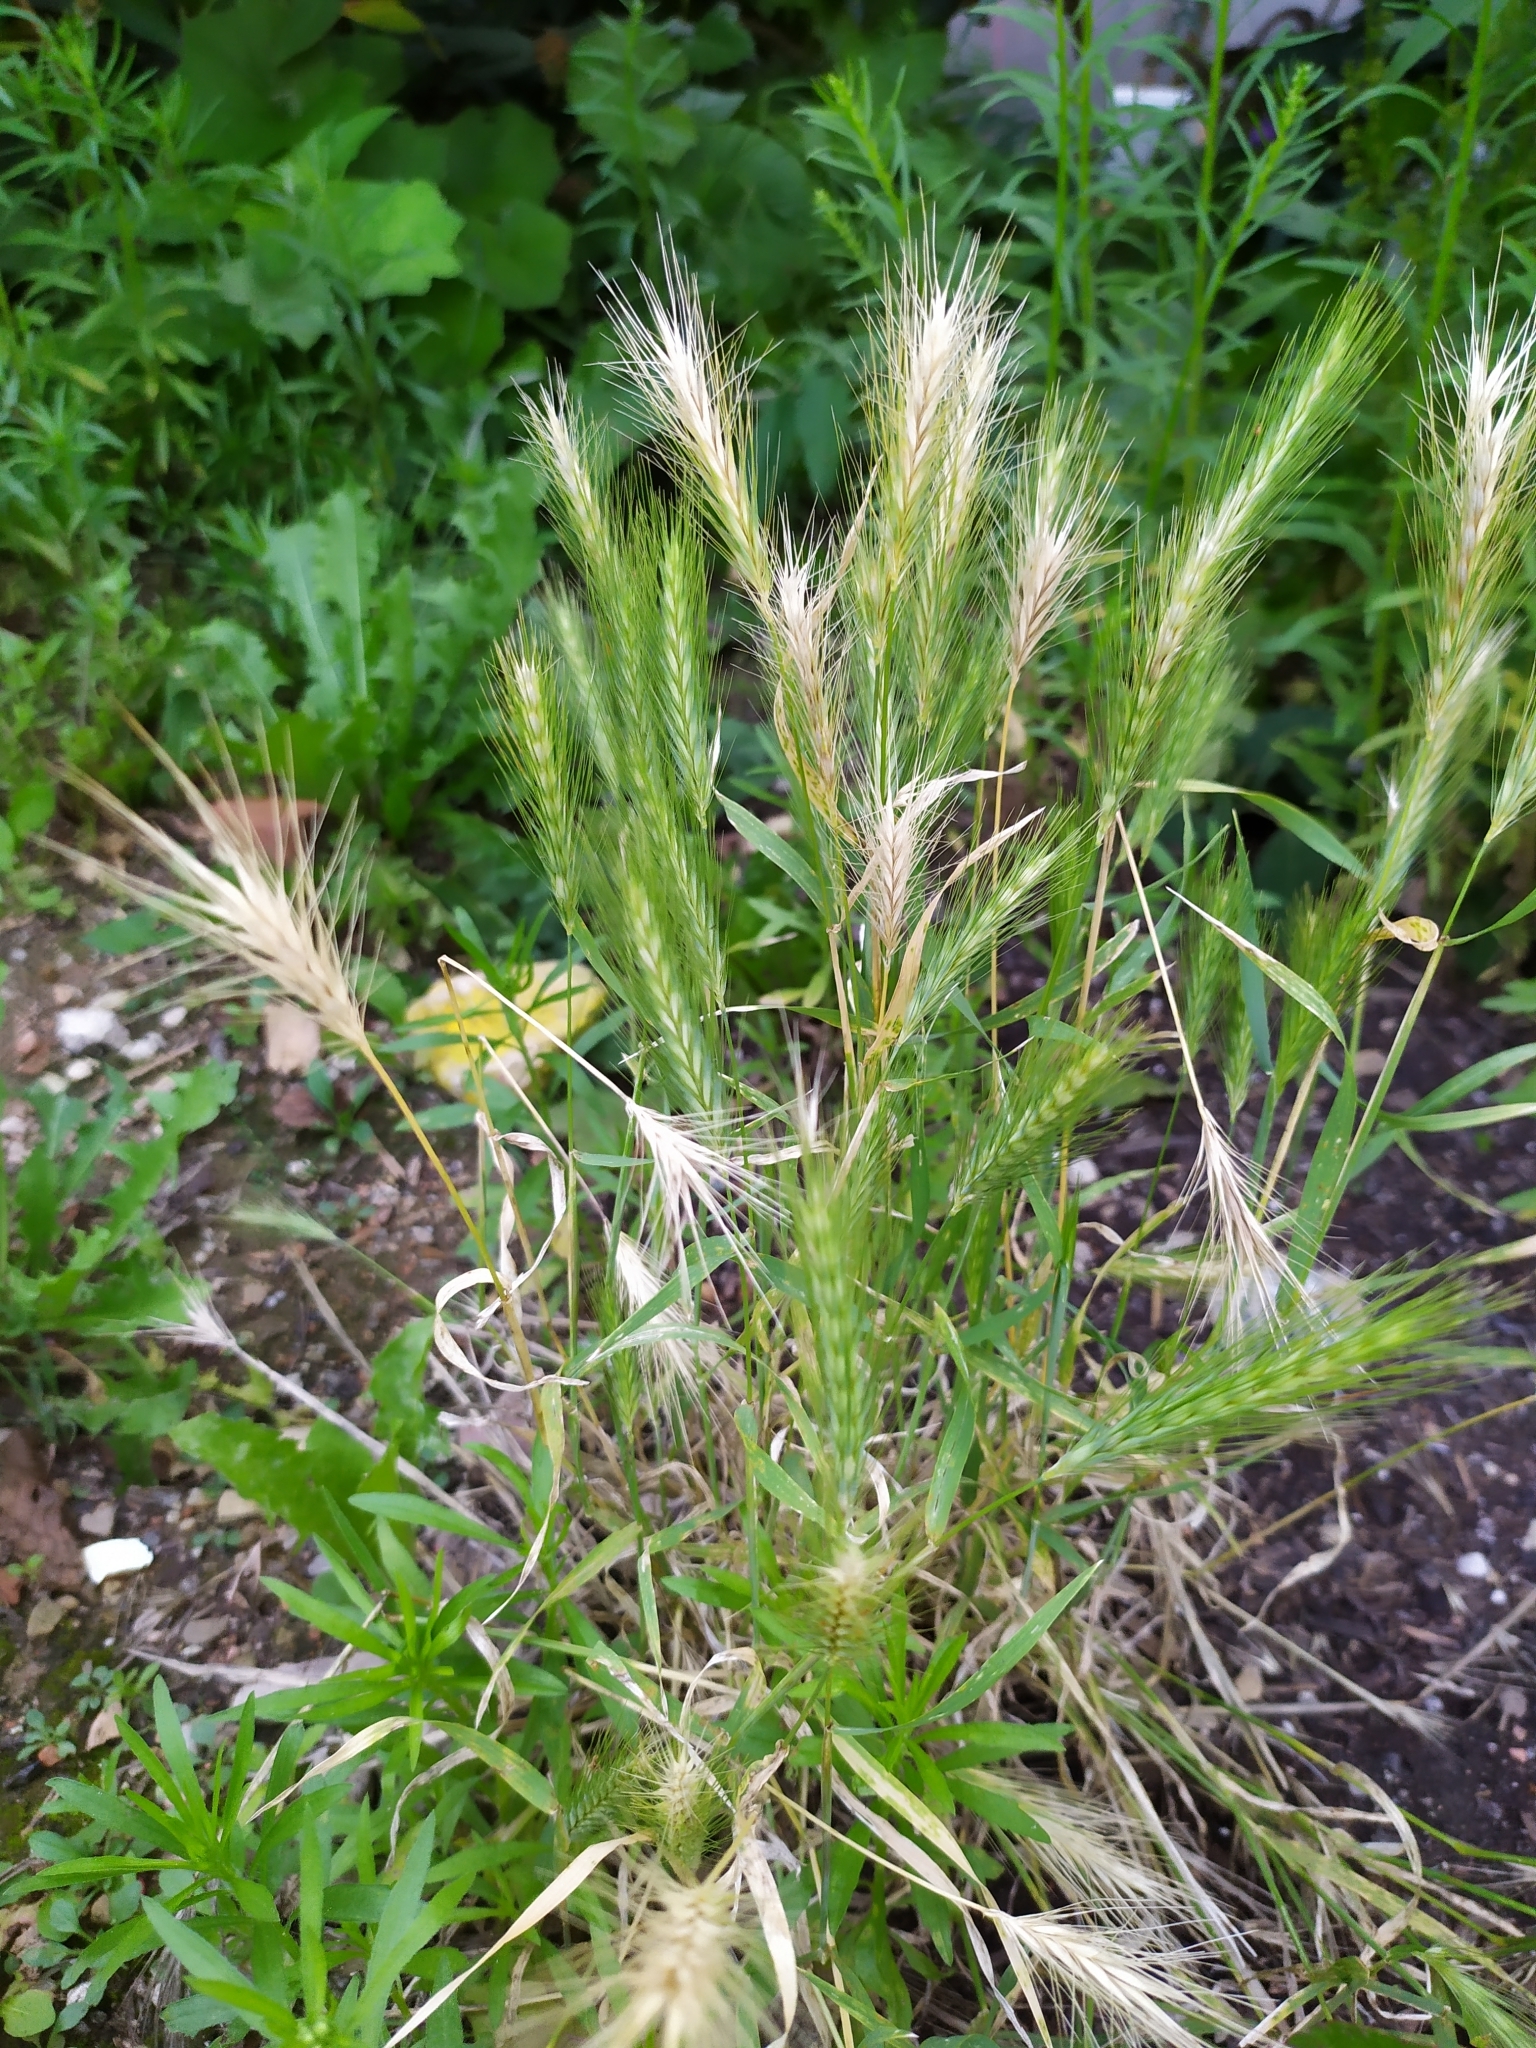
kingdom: Plantae
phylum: Tracheophyta
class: Liliopsida
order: Poales
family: Poaceae
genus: Hordeum
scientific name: Hordeum murinum
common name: Wall barley
